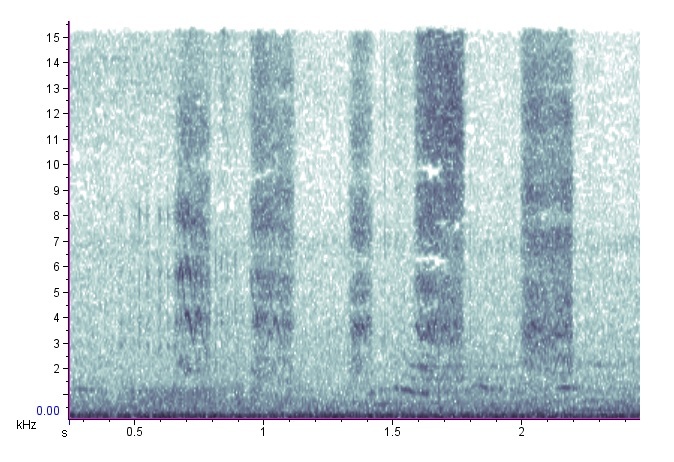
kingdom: Animalia
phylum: Arthropoda
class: Insecta
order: Coleoptera
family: Passalidae
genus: Odontotaenius
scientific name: Odontotaenius disjunctus
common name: Patent leather beetle
